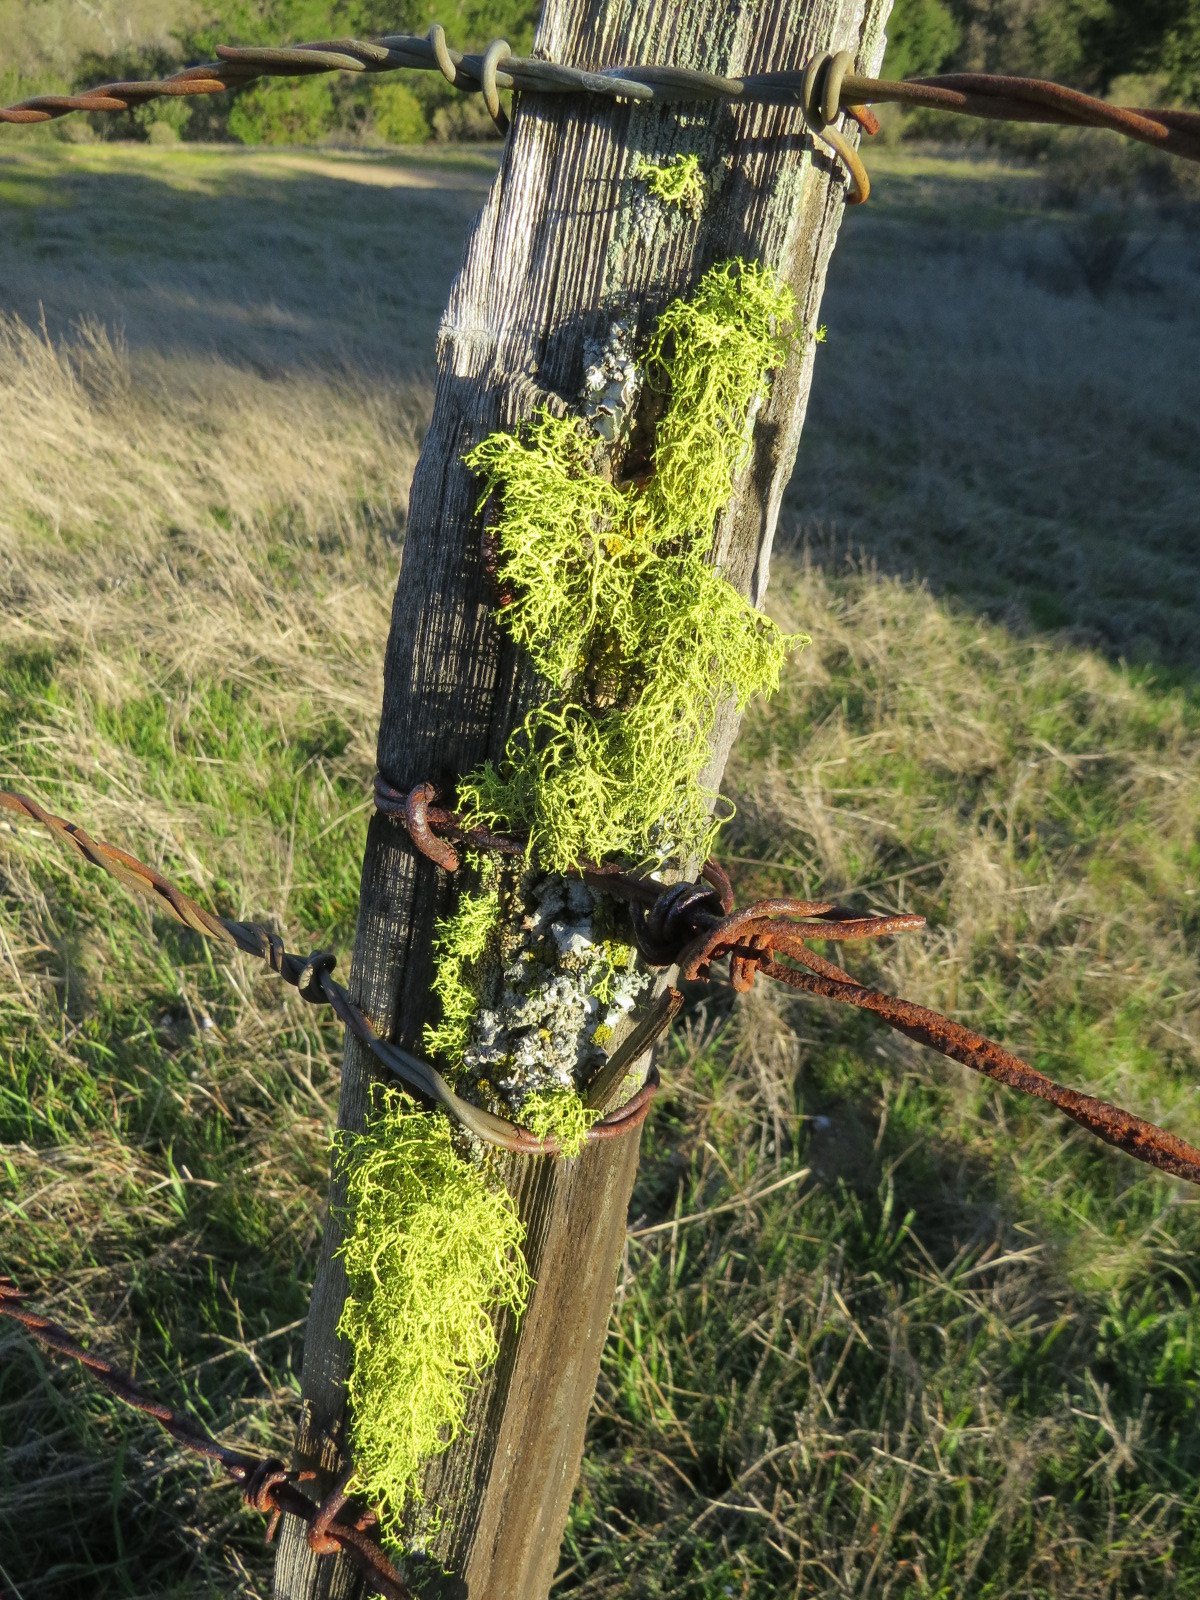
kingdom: Fungi
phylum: Ascomycota
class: Lecanoromycetes
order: Lecanorales
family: Parmeliaceae
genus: Letharia
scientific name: Letharia vulpina
